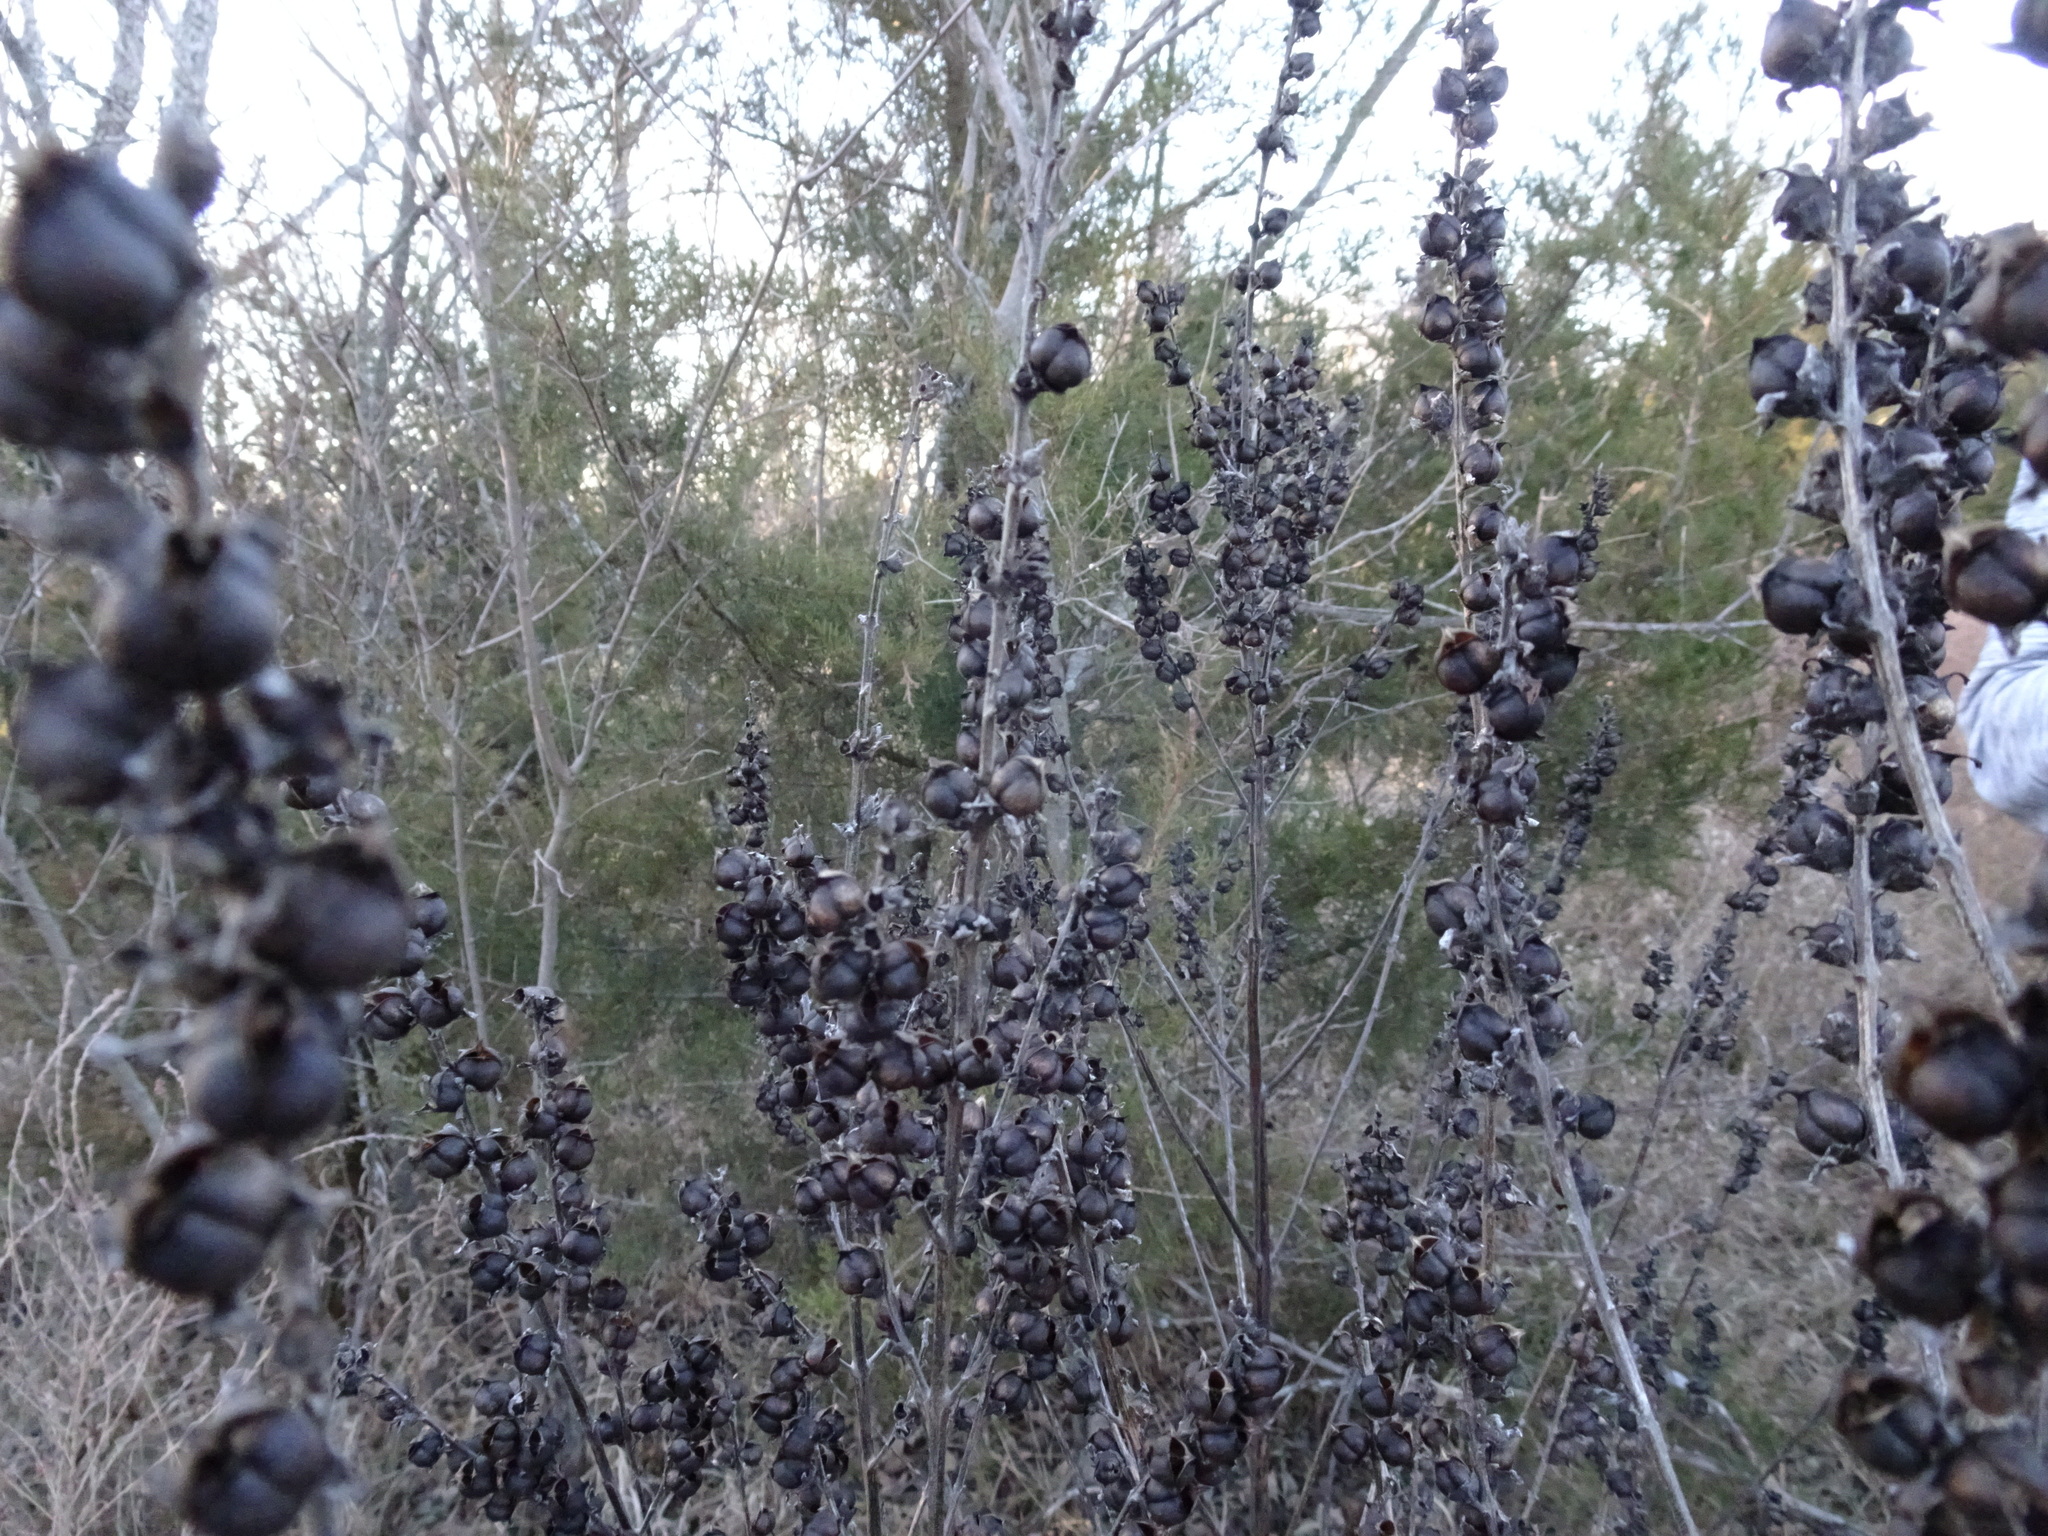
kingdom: Plantae
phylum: Tracheophyta
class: Magnoliopsida
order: Lamiales
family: Orobanchaceae
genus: Dasistoma
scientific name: Dasistoma macrophyllum
